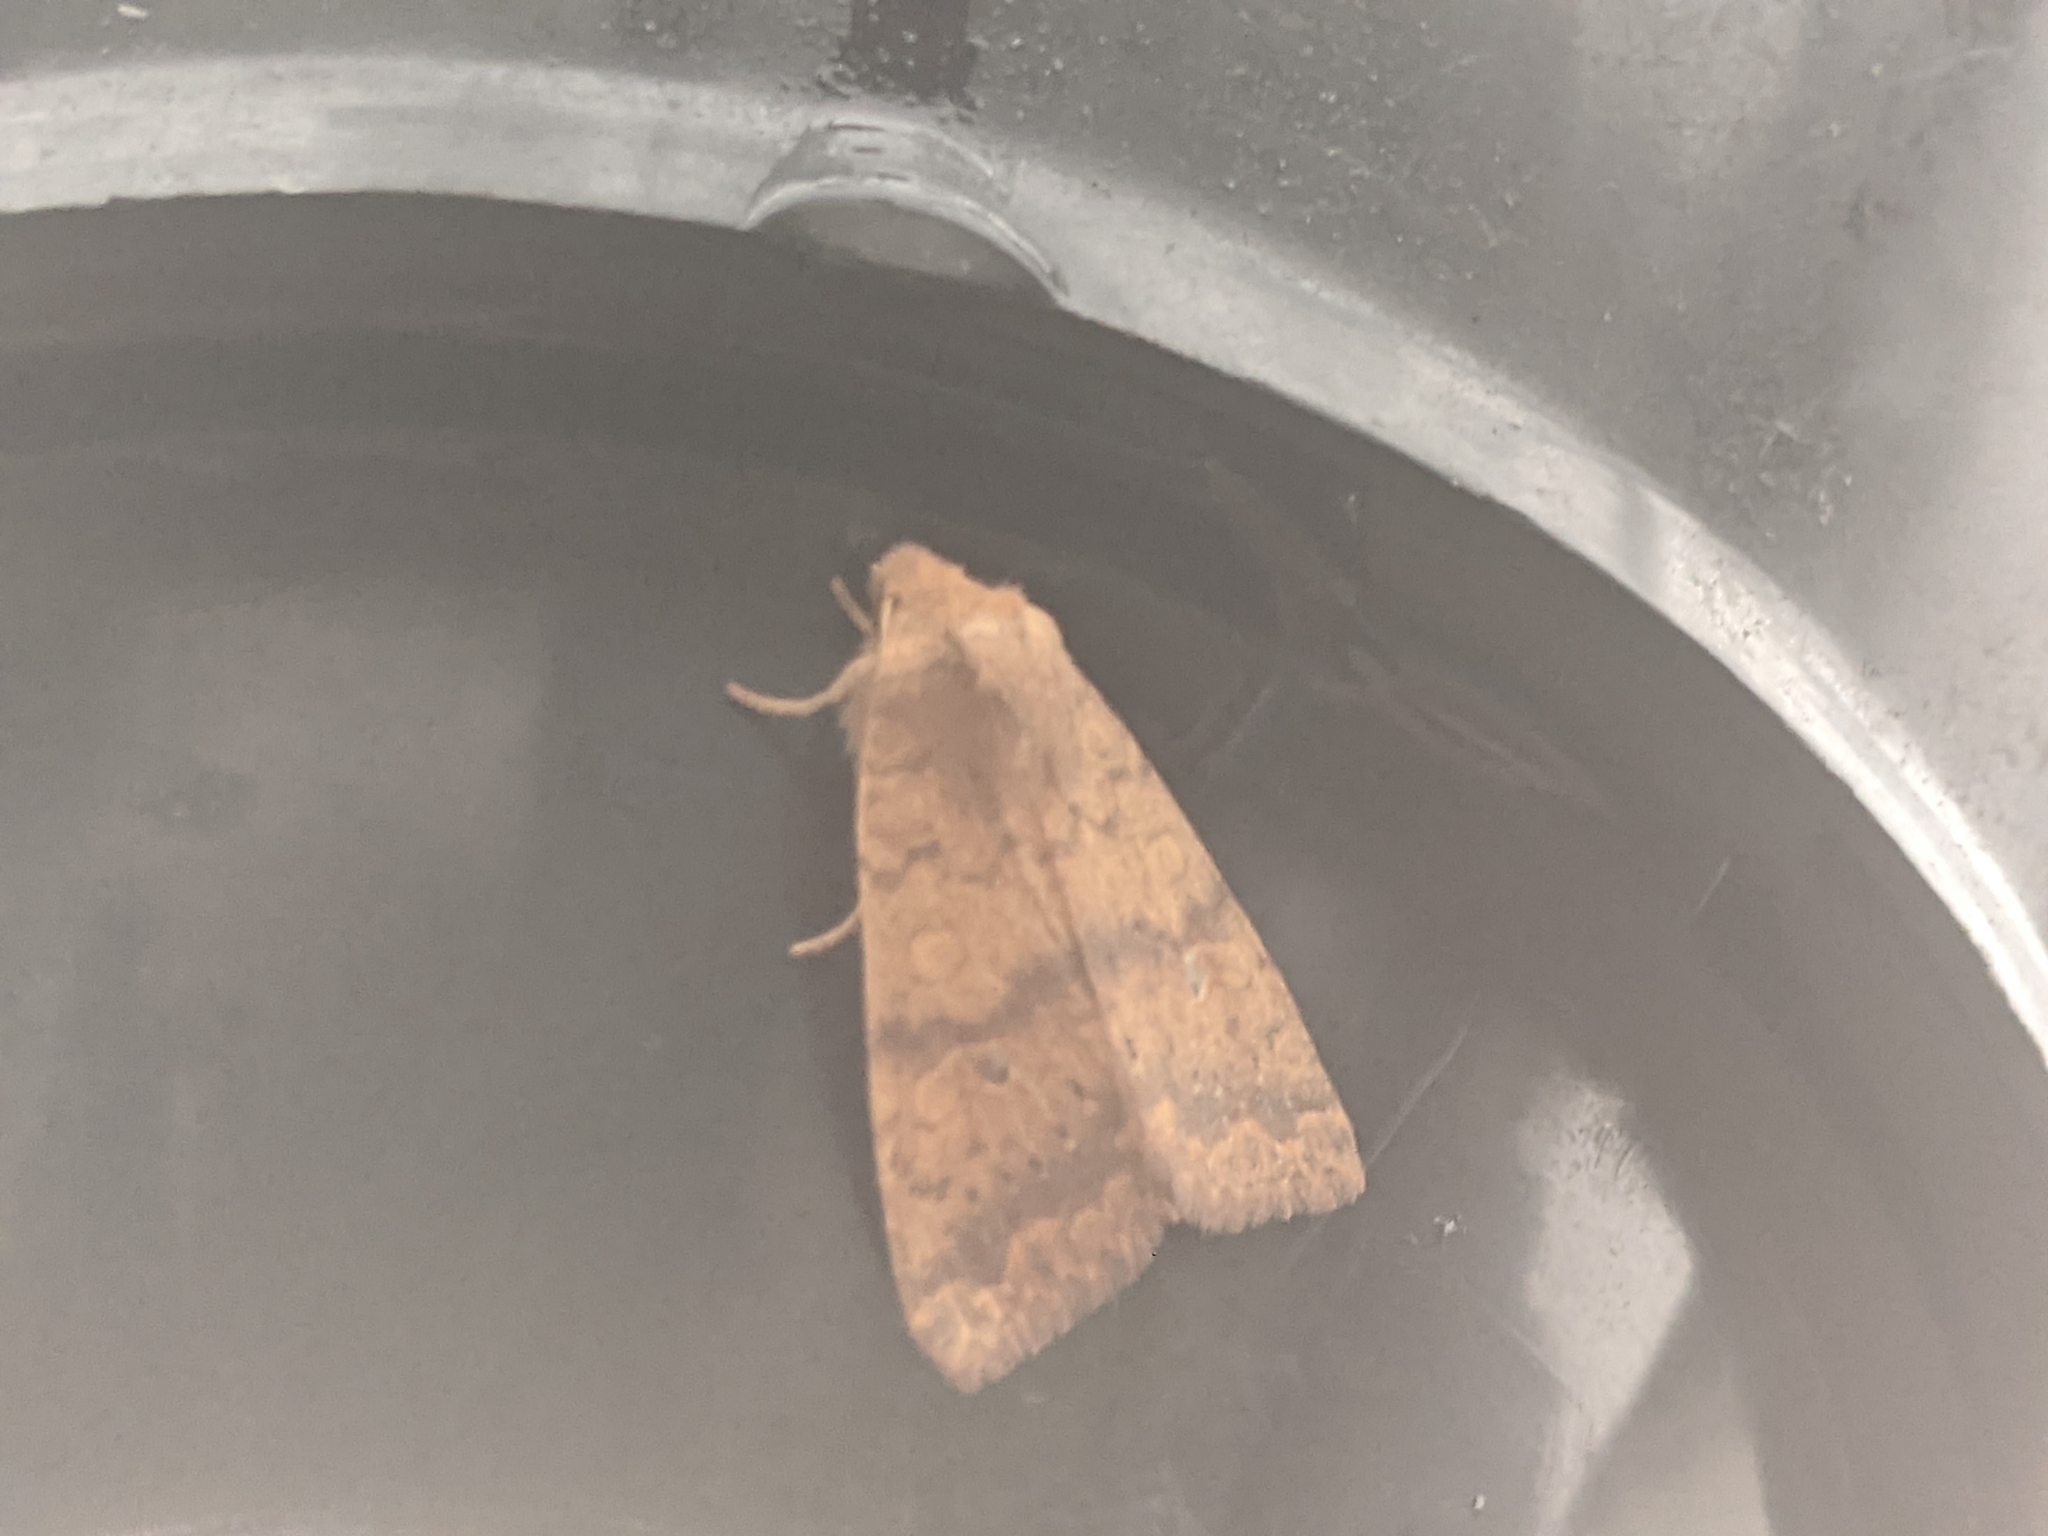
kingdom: Animalia
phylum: Arthropoda
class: Insecta
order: Lepidoptera
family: Noctuidae
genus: Agrochola
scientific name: Agrochola bicolorago
